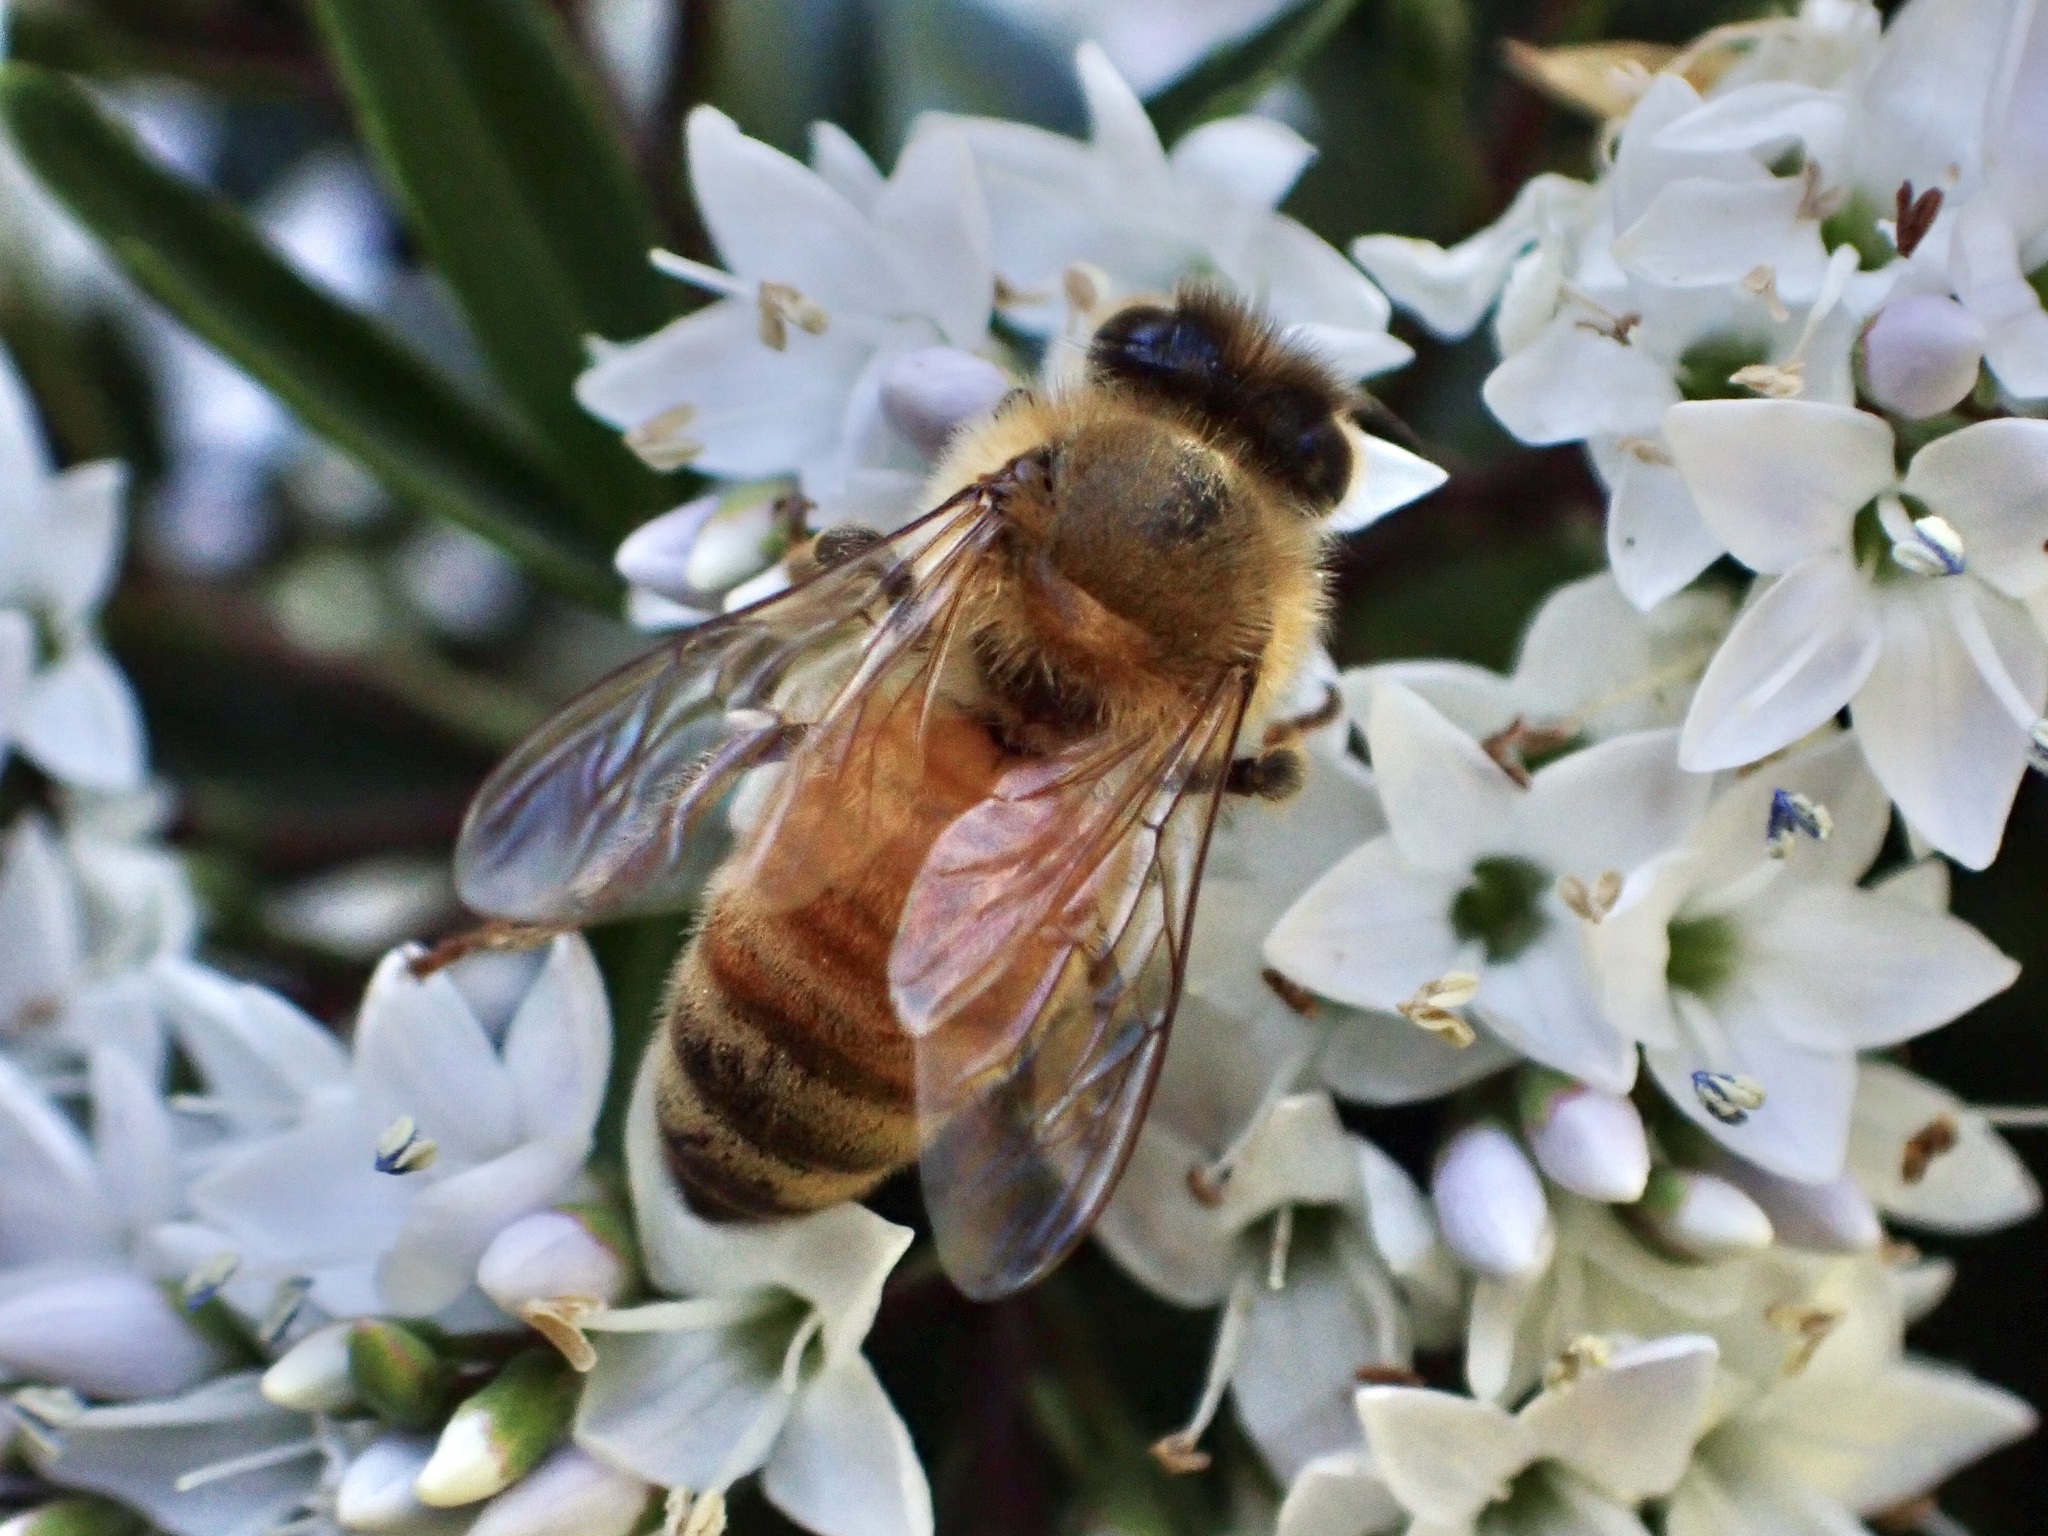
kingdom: Animalia
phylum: Arthropoda
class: Insecta
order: Hymenoptera
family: Apidae
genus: Apis
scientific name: Apis mellifera
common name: Honey bee
